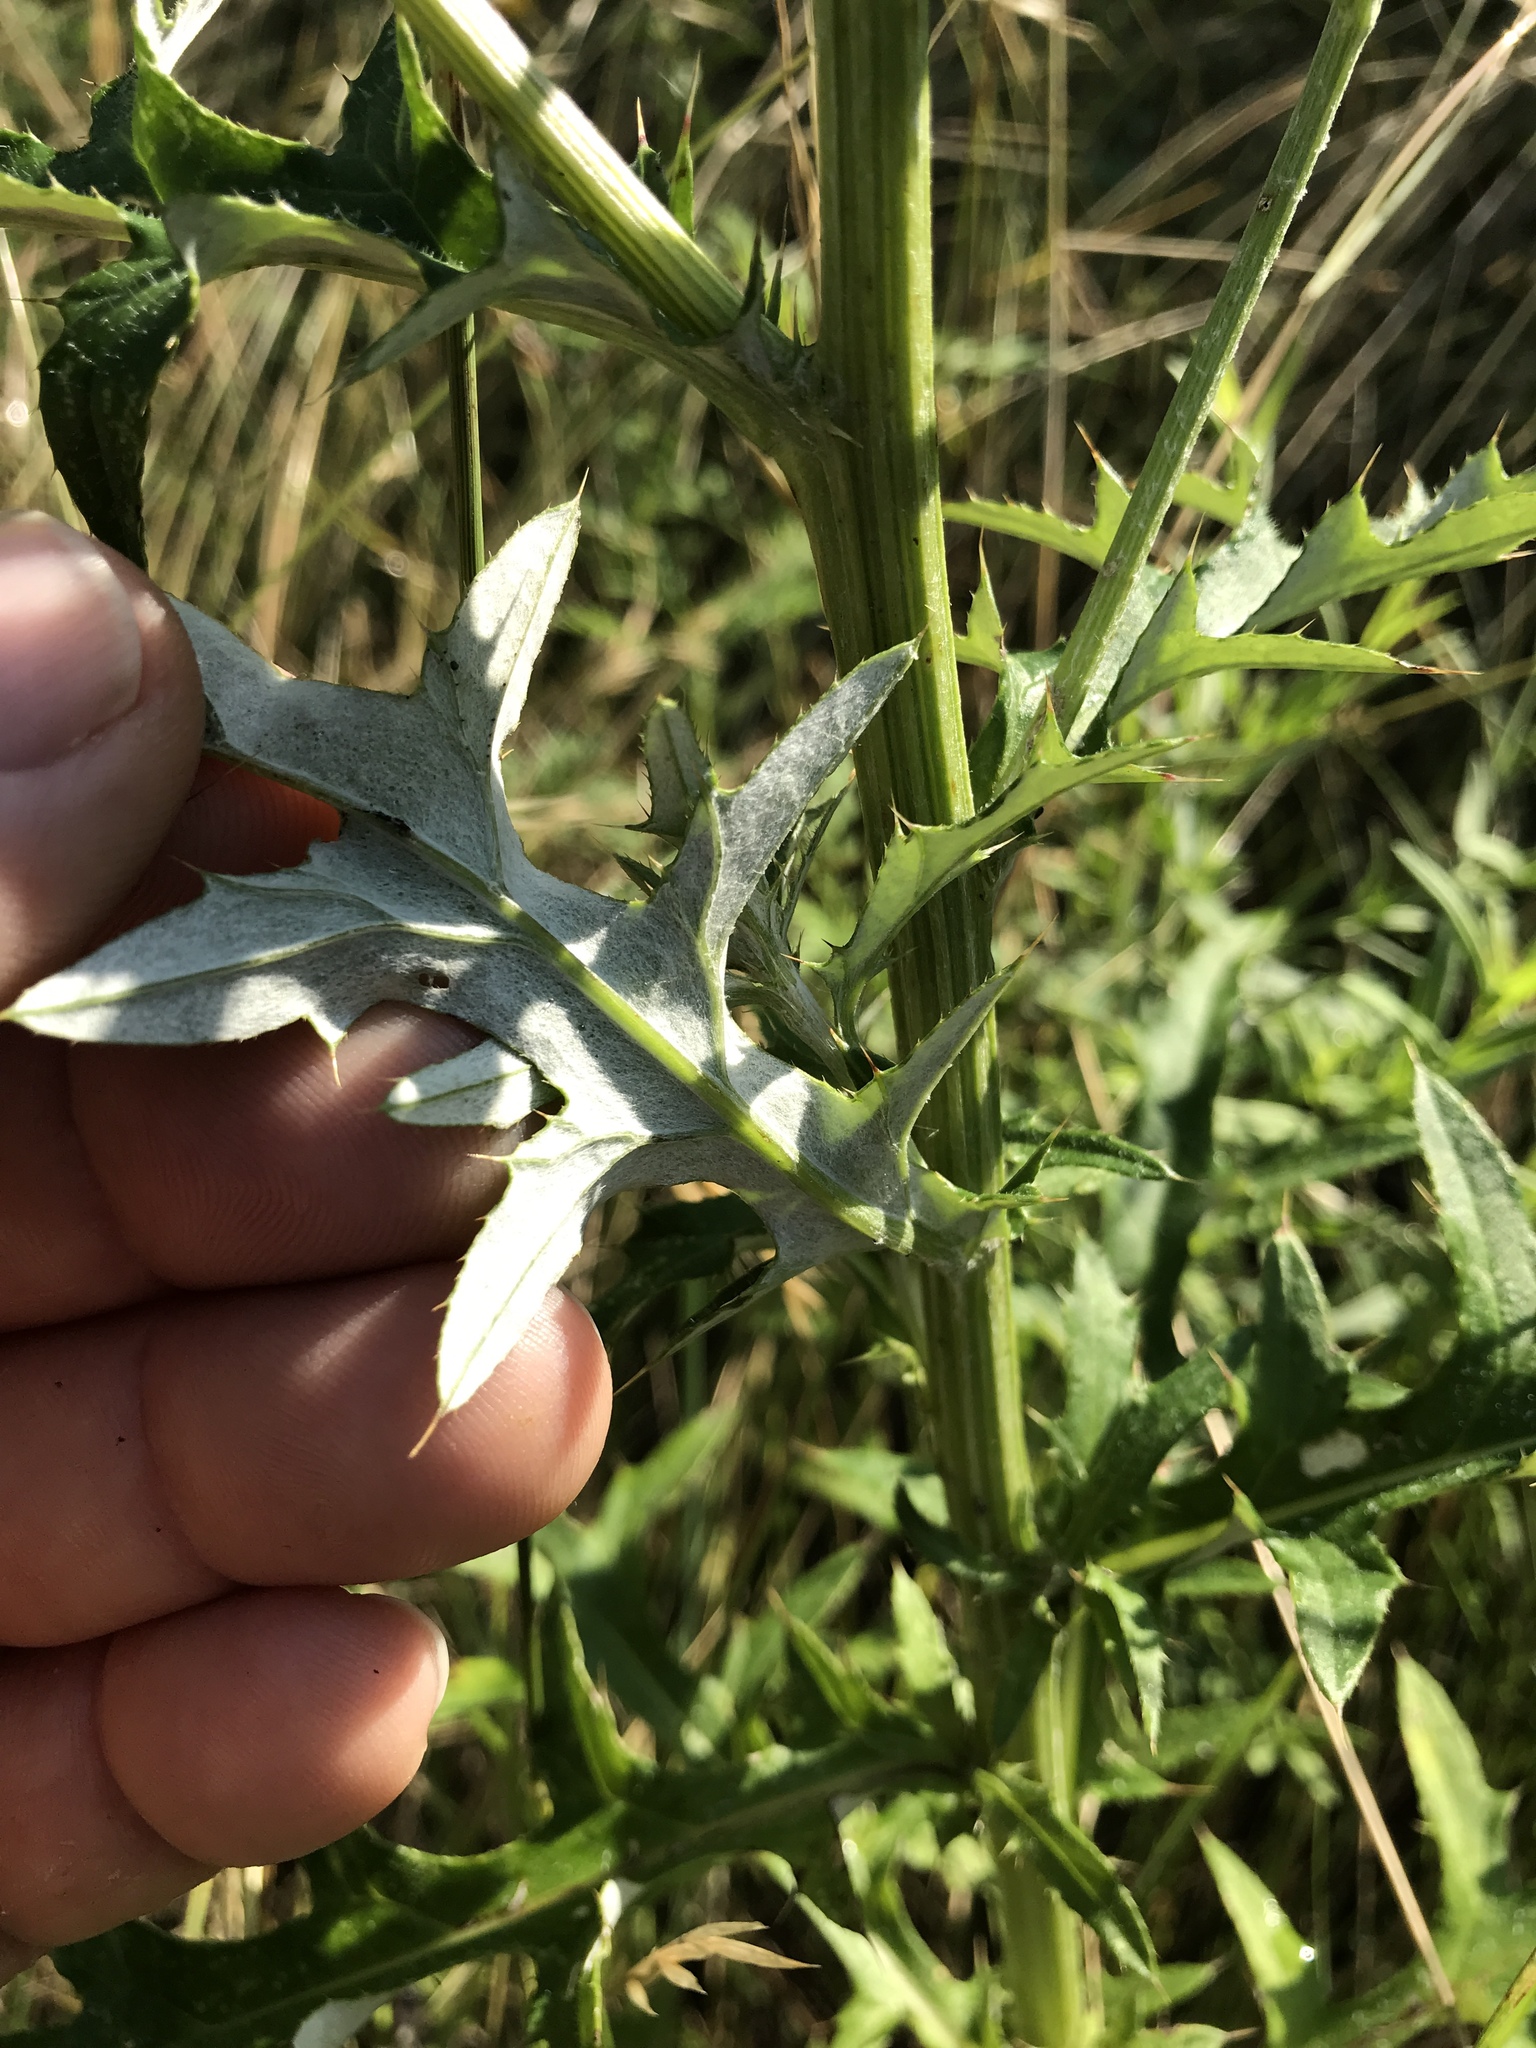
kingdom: Plantae
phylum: Tracheophyta
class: Magnoliopsida
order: Asterales
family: Asteraceae
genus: Cirsium
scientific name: Cirsium texanum
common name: Texas purple thistle
